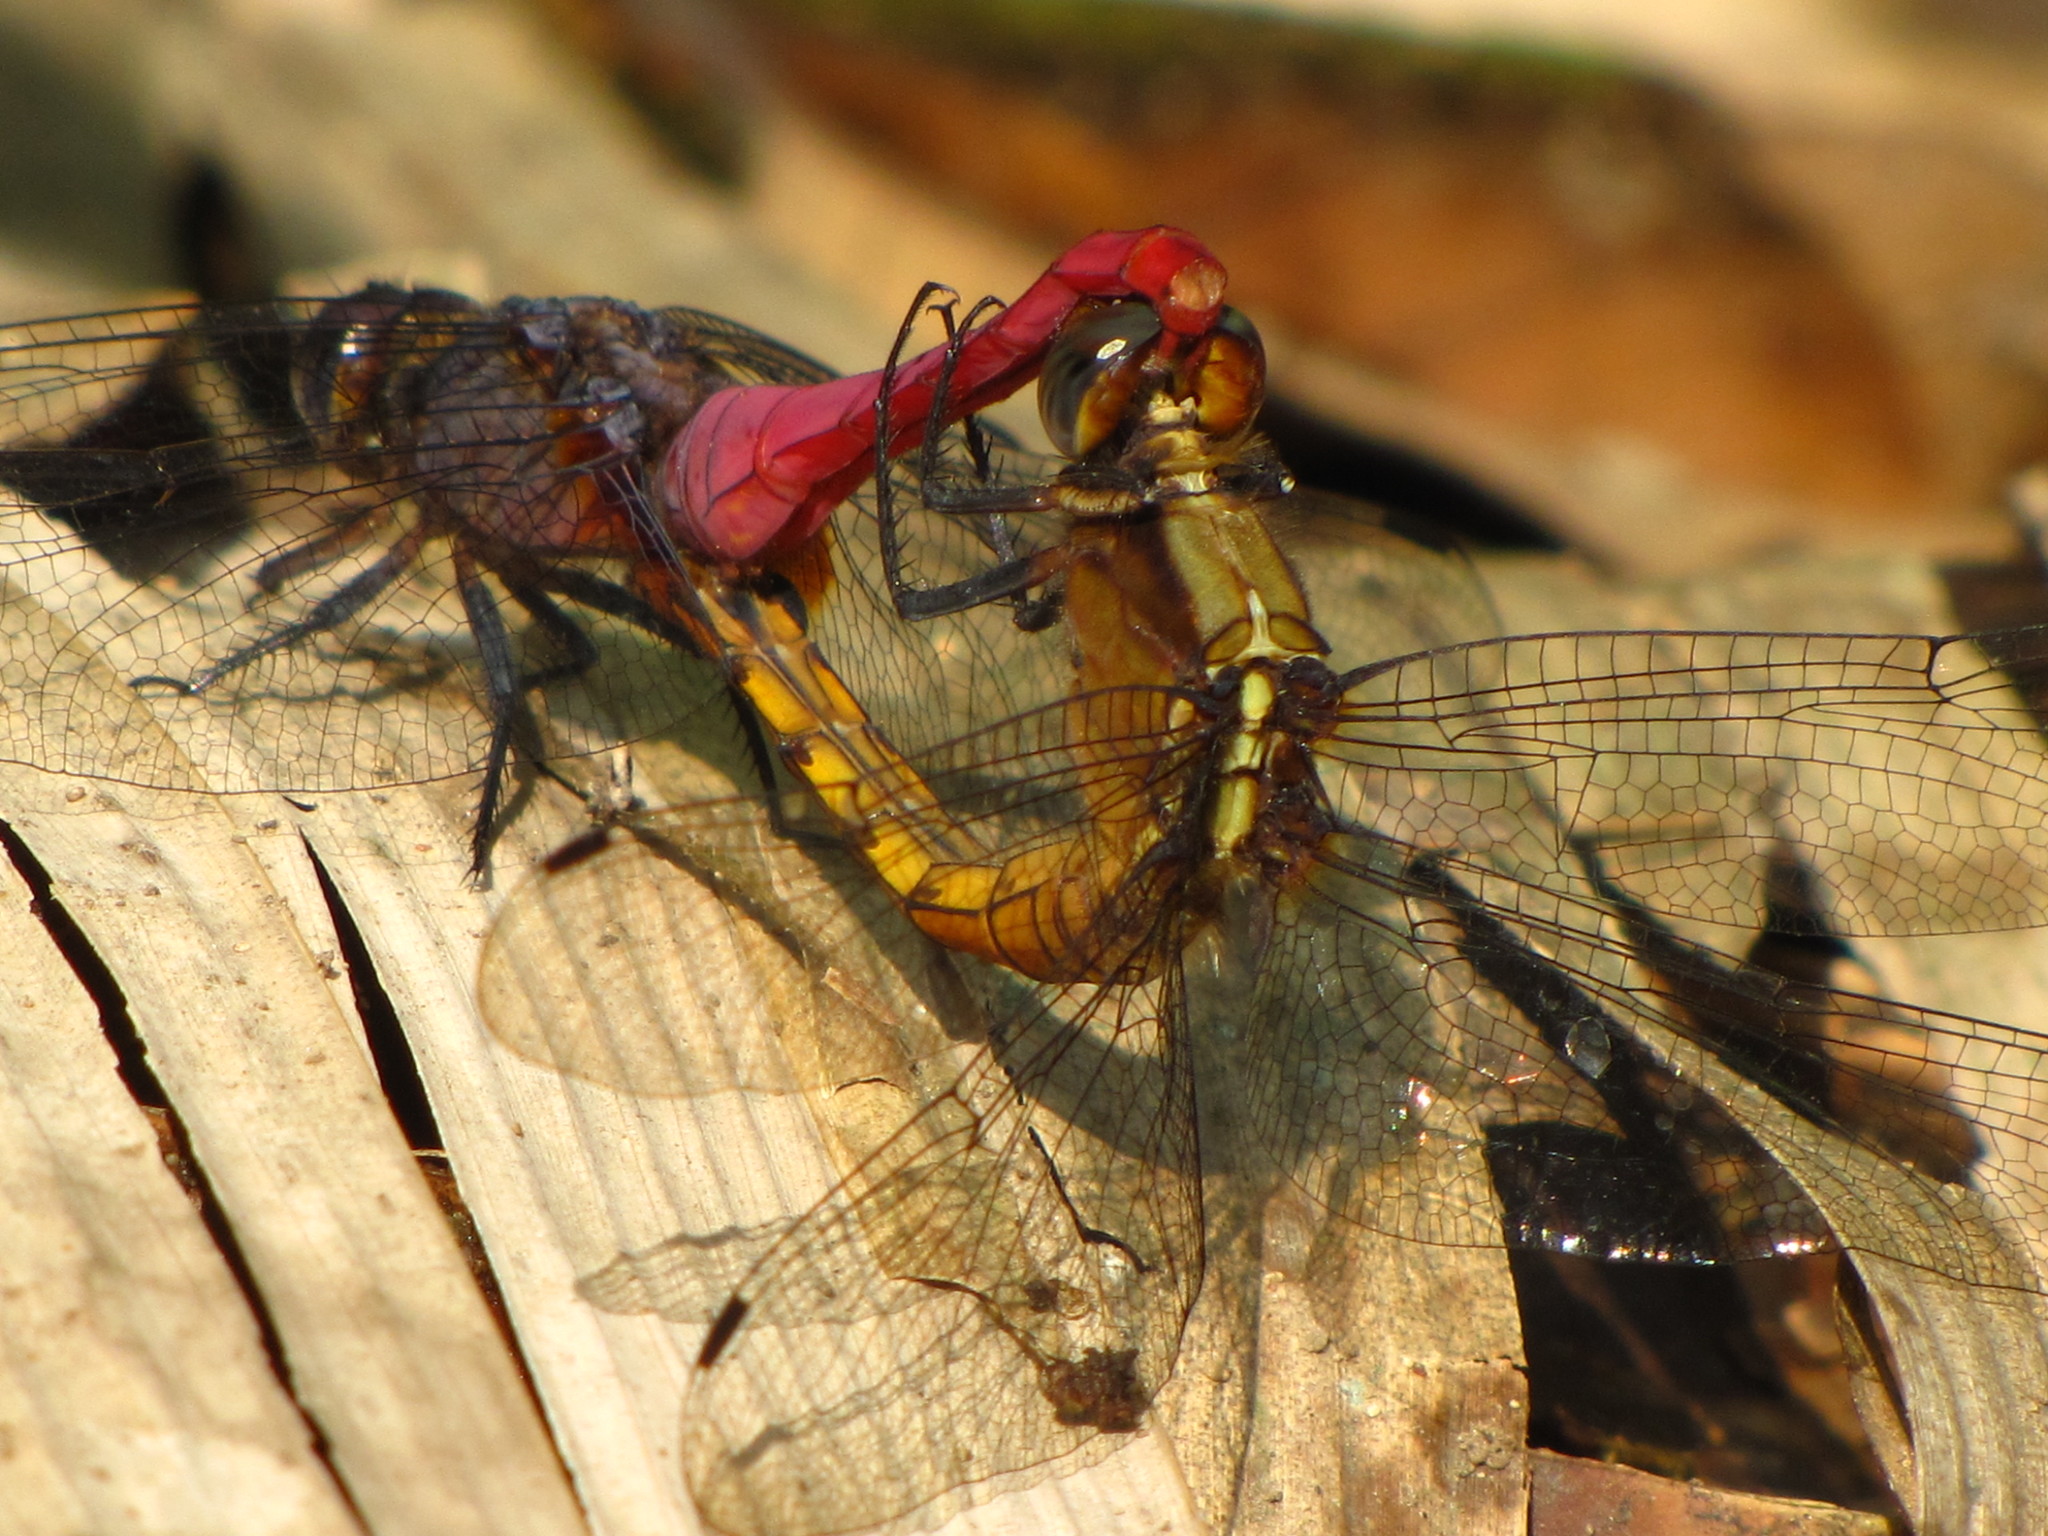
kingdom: Animalia
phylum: Arthropoda
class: Insecta
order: Odonata
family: Libellulidae
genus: Orthetrum
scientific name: Orthetrum pruinosum
